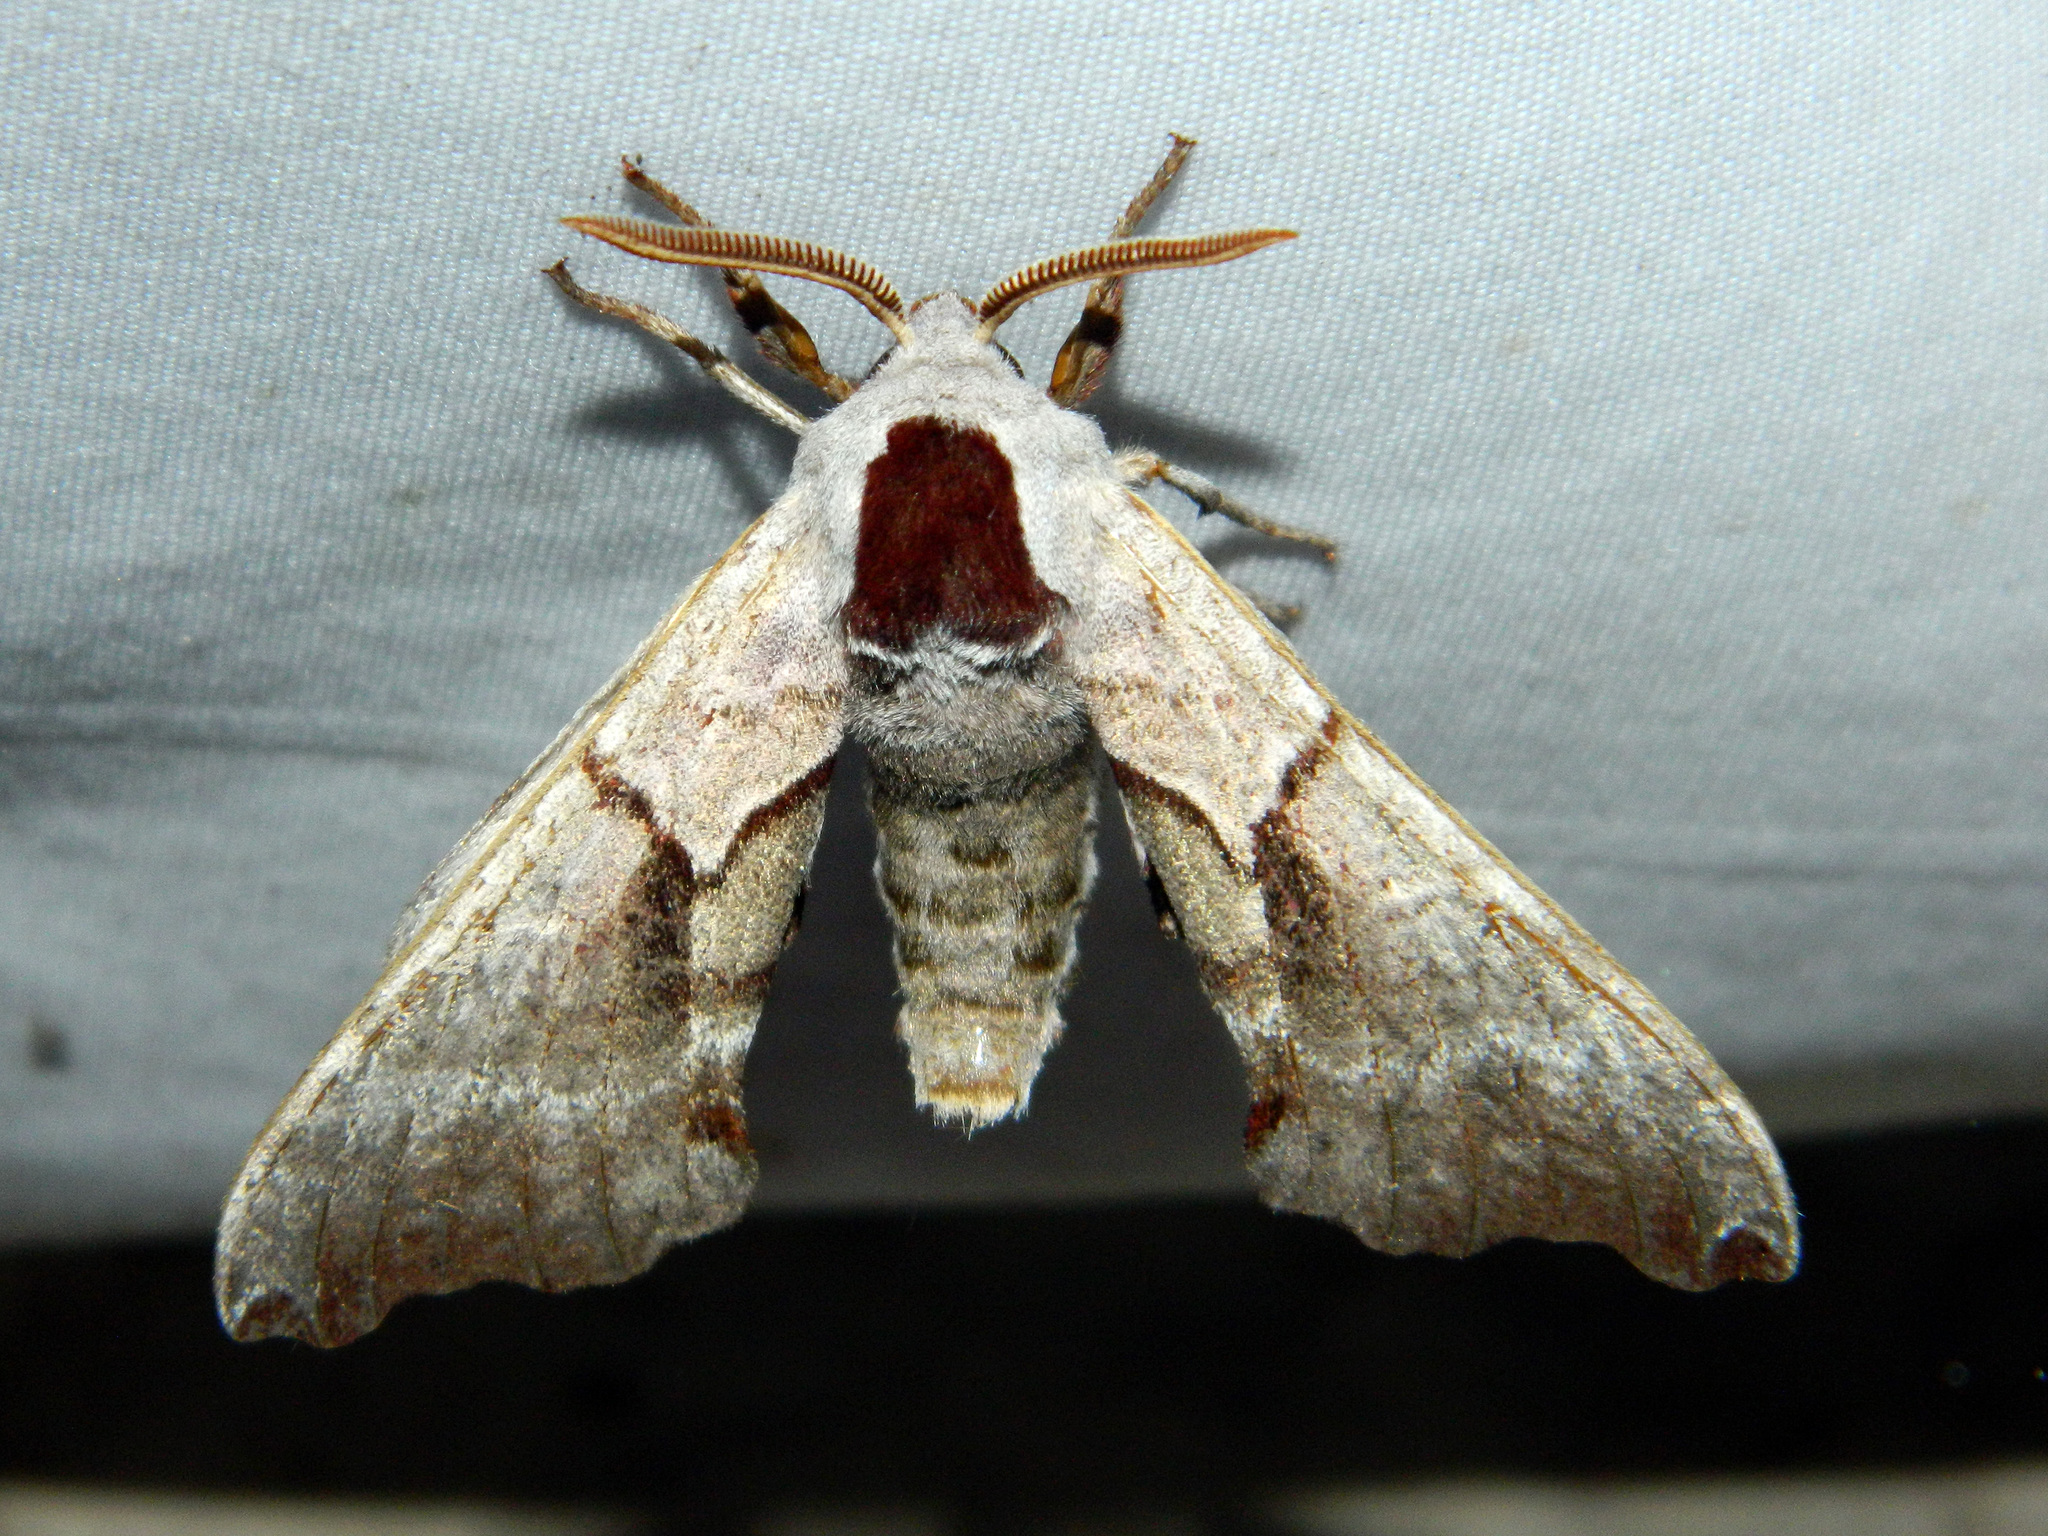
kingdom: Animalia
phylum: Arthropoda
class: Insecta
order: Lepidoptera
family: Sphingidae
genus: Smerinthus
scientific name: Smerinthus jamaicensis
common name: Twin spotted sphinx
